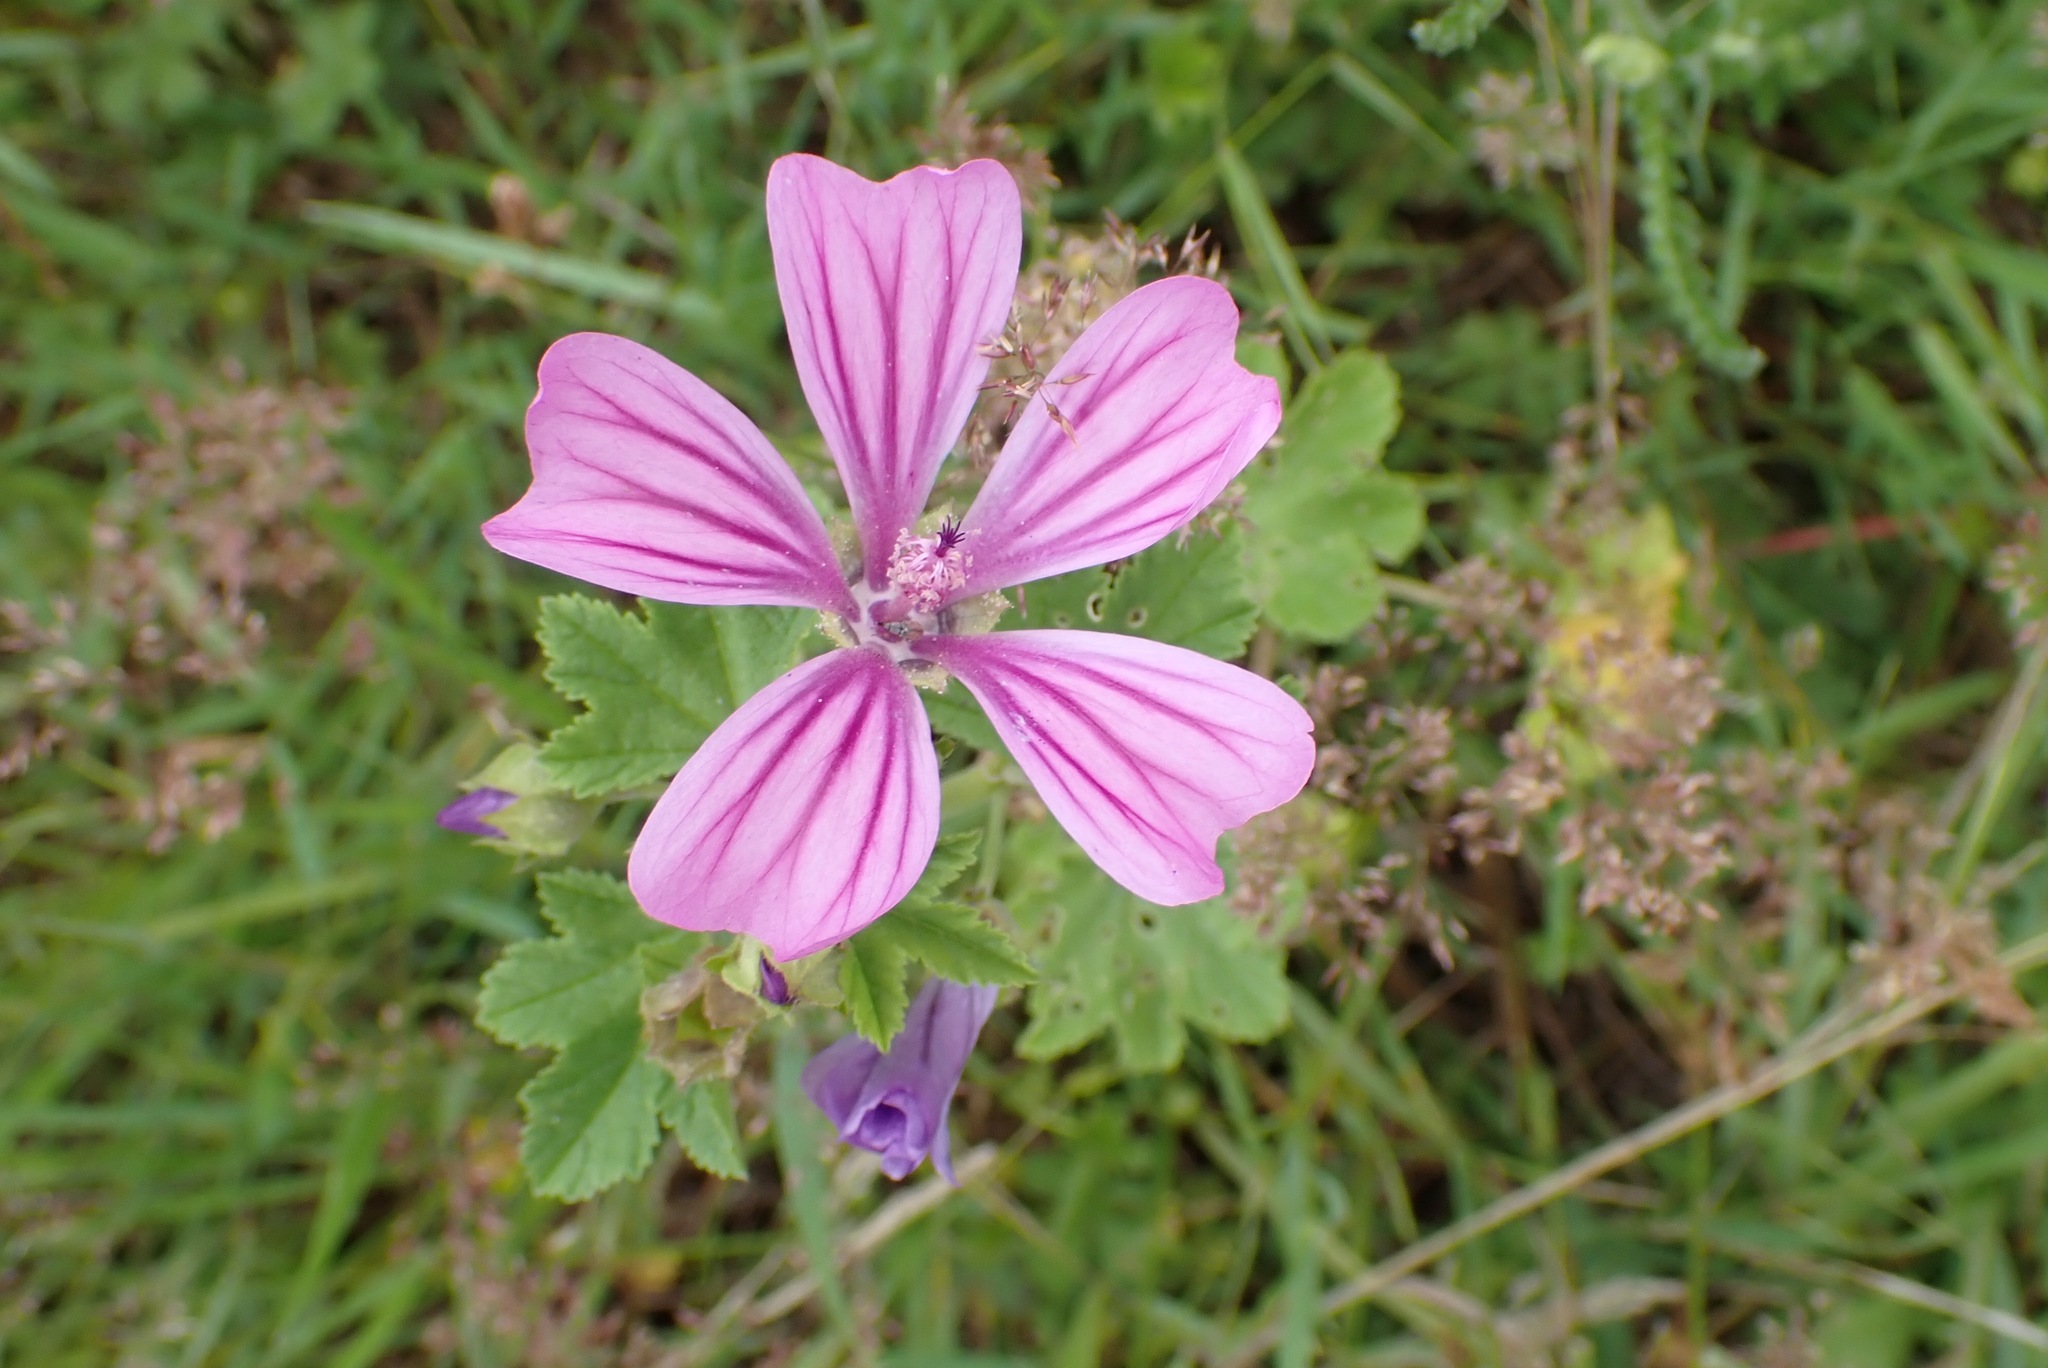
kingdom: Plantae
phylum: Tracheophyta
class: Magnoliopsida
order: Malvales
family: Malvaceae
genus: Malva
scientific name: Malva sylvestris
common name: Common mallow
